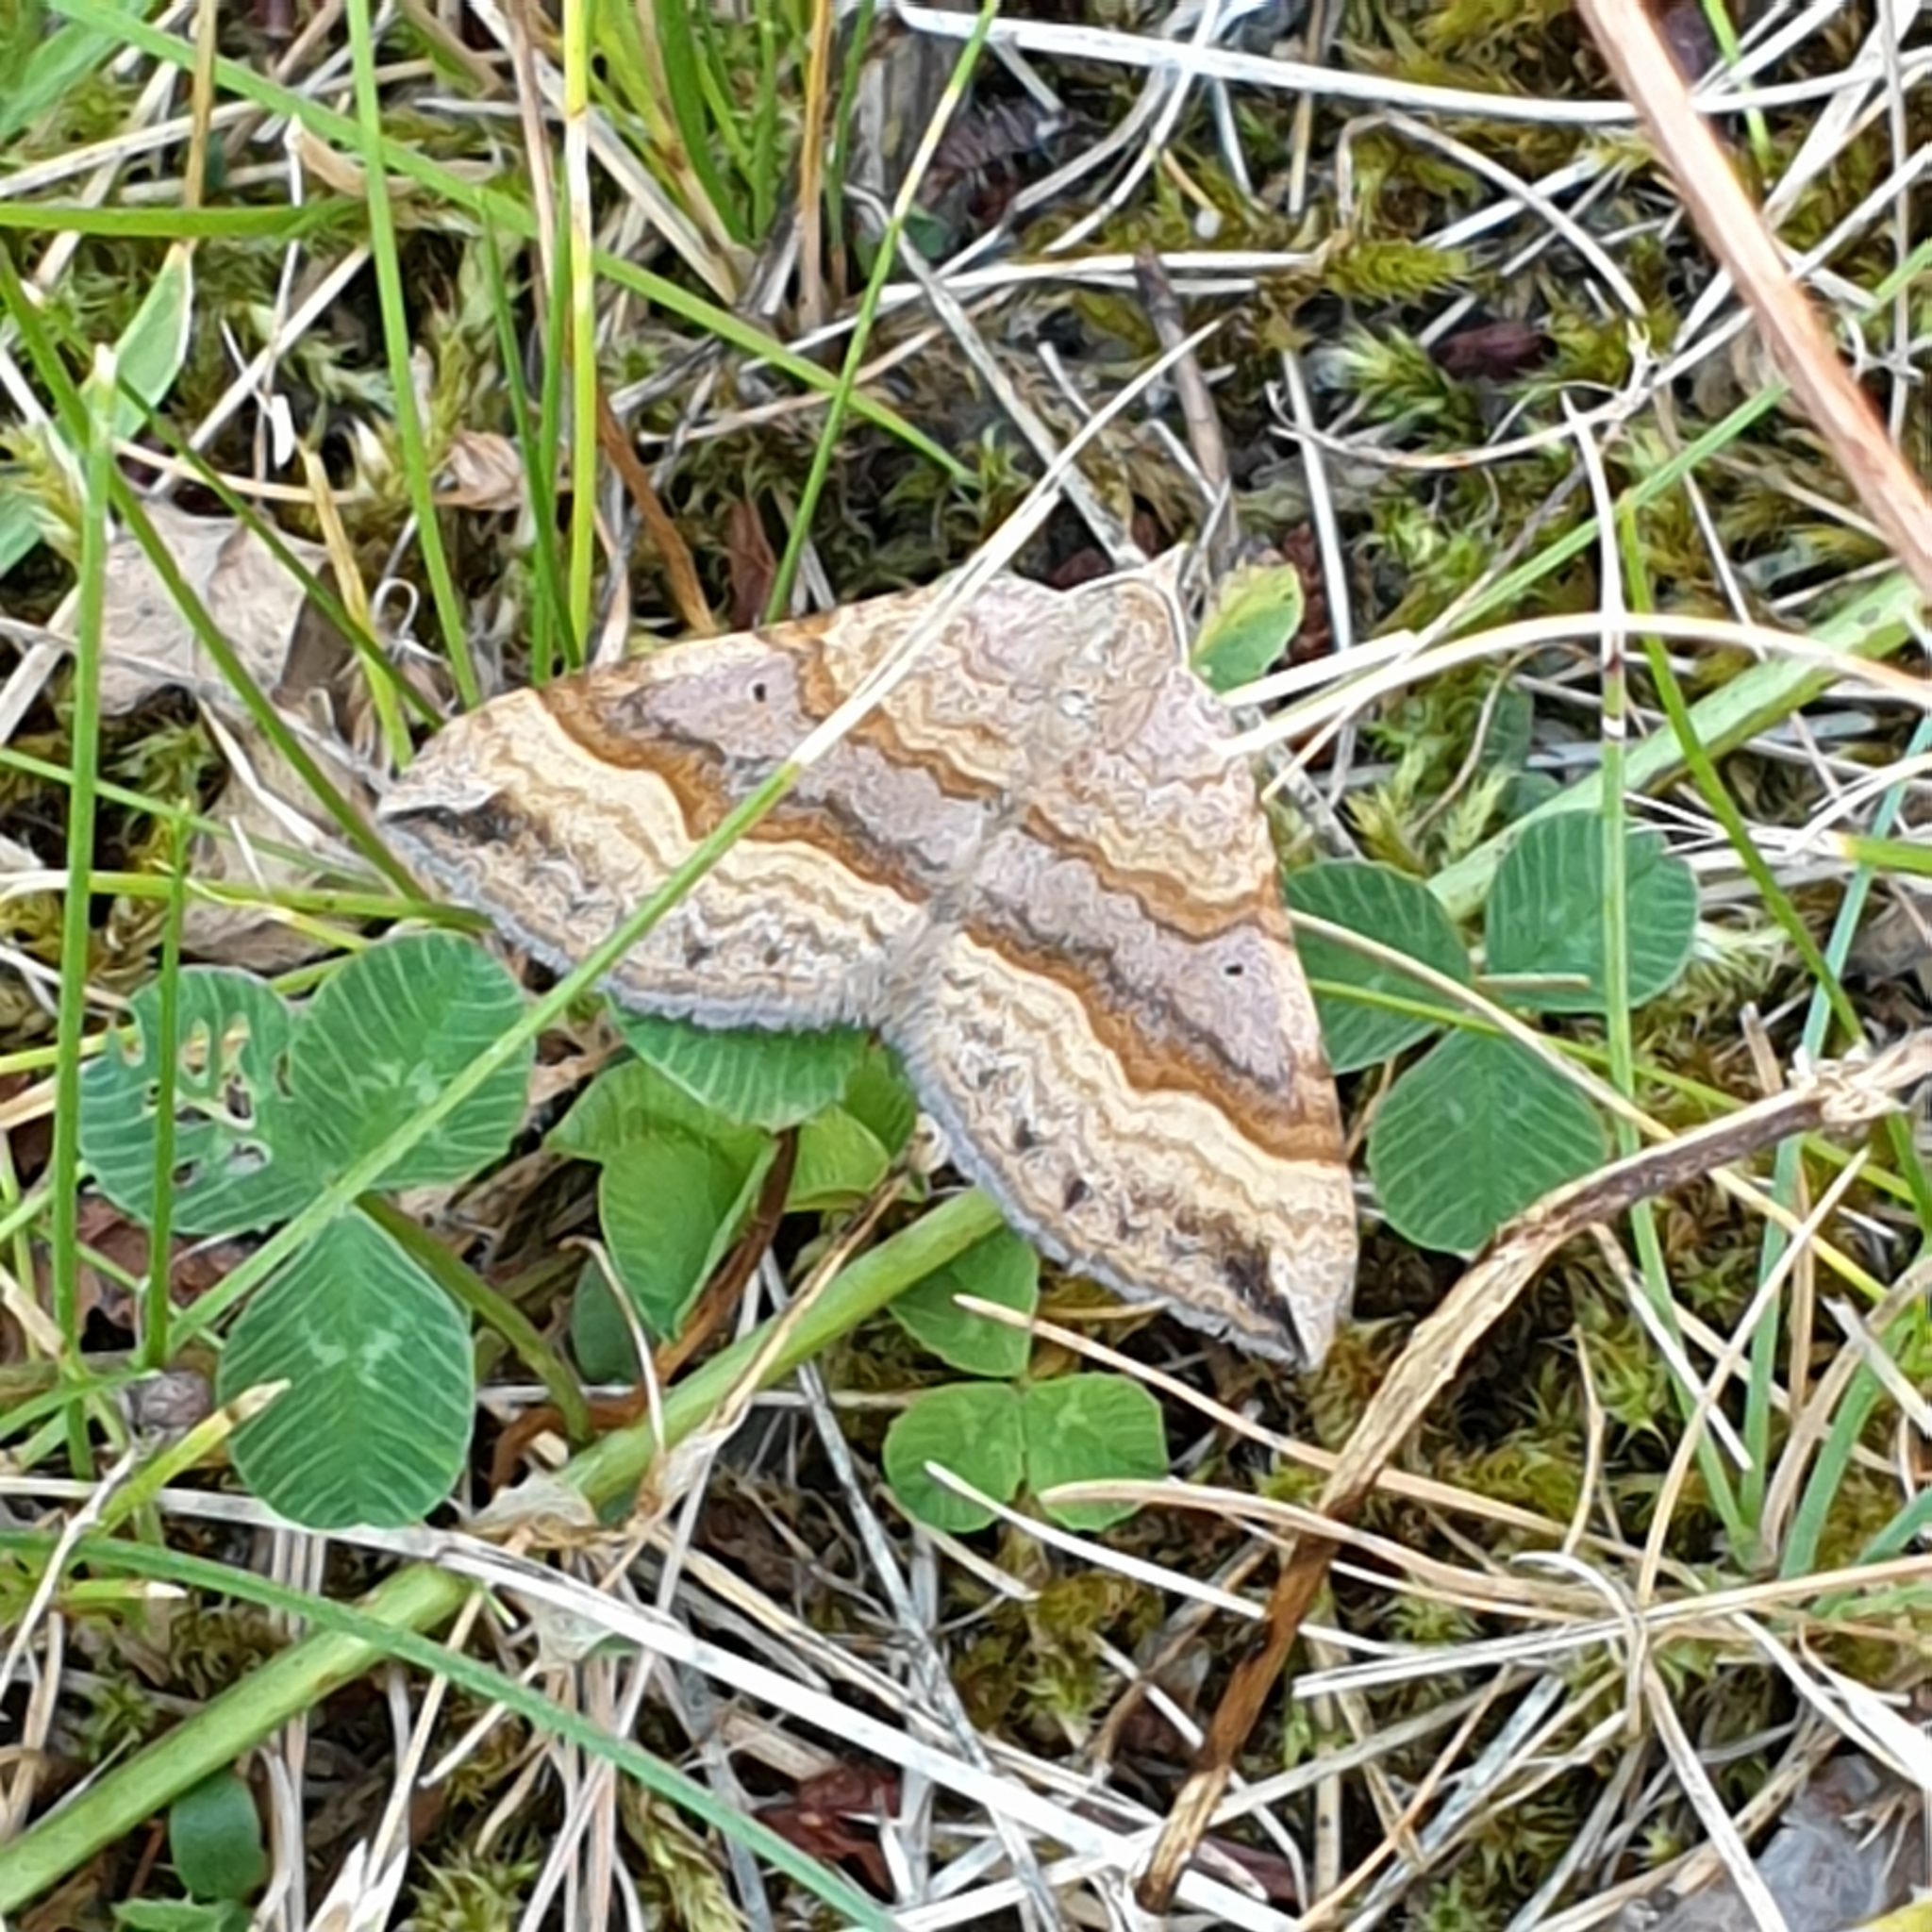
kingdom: Animalia
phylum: Arthropoda
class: Insecta
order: Lepidoptera
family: Geometridae
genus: Scotopteryx
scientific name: Scotopteryx chenopodiata
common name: Shaded broad-bar
